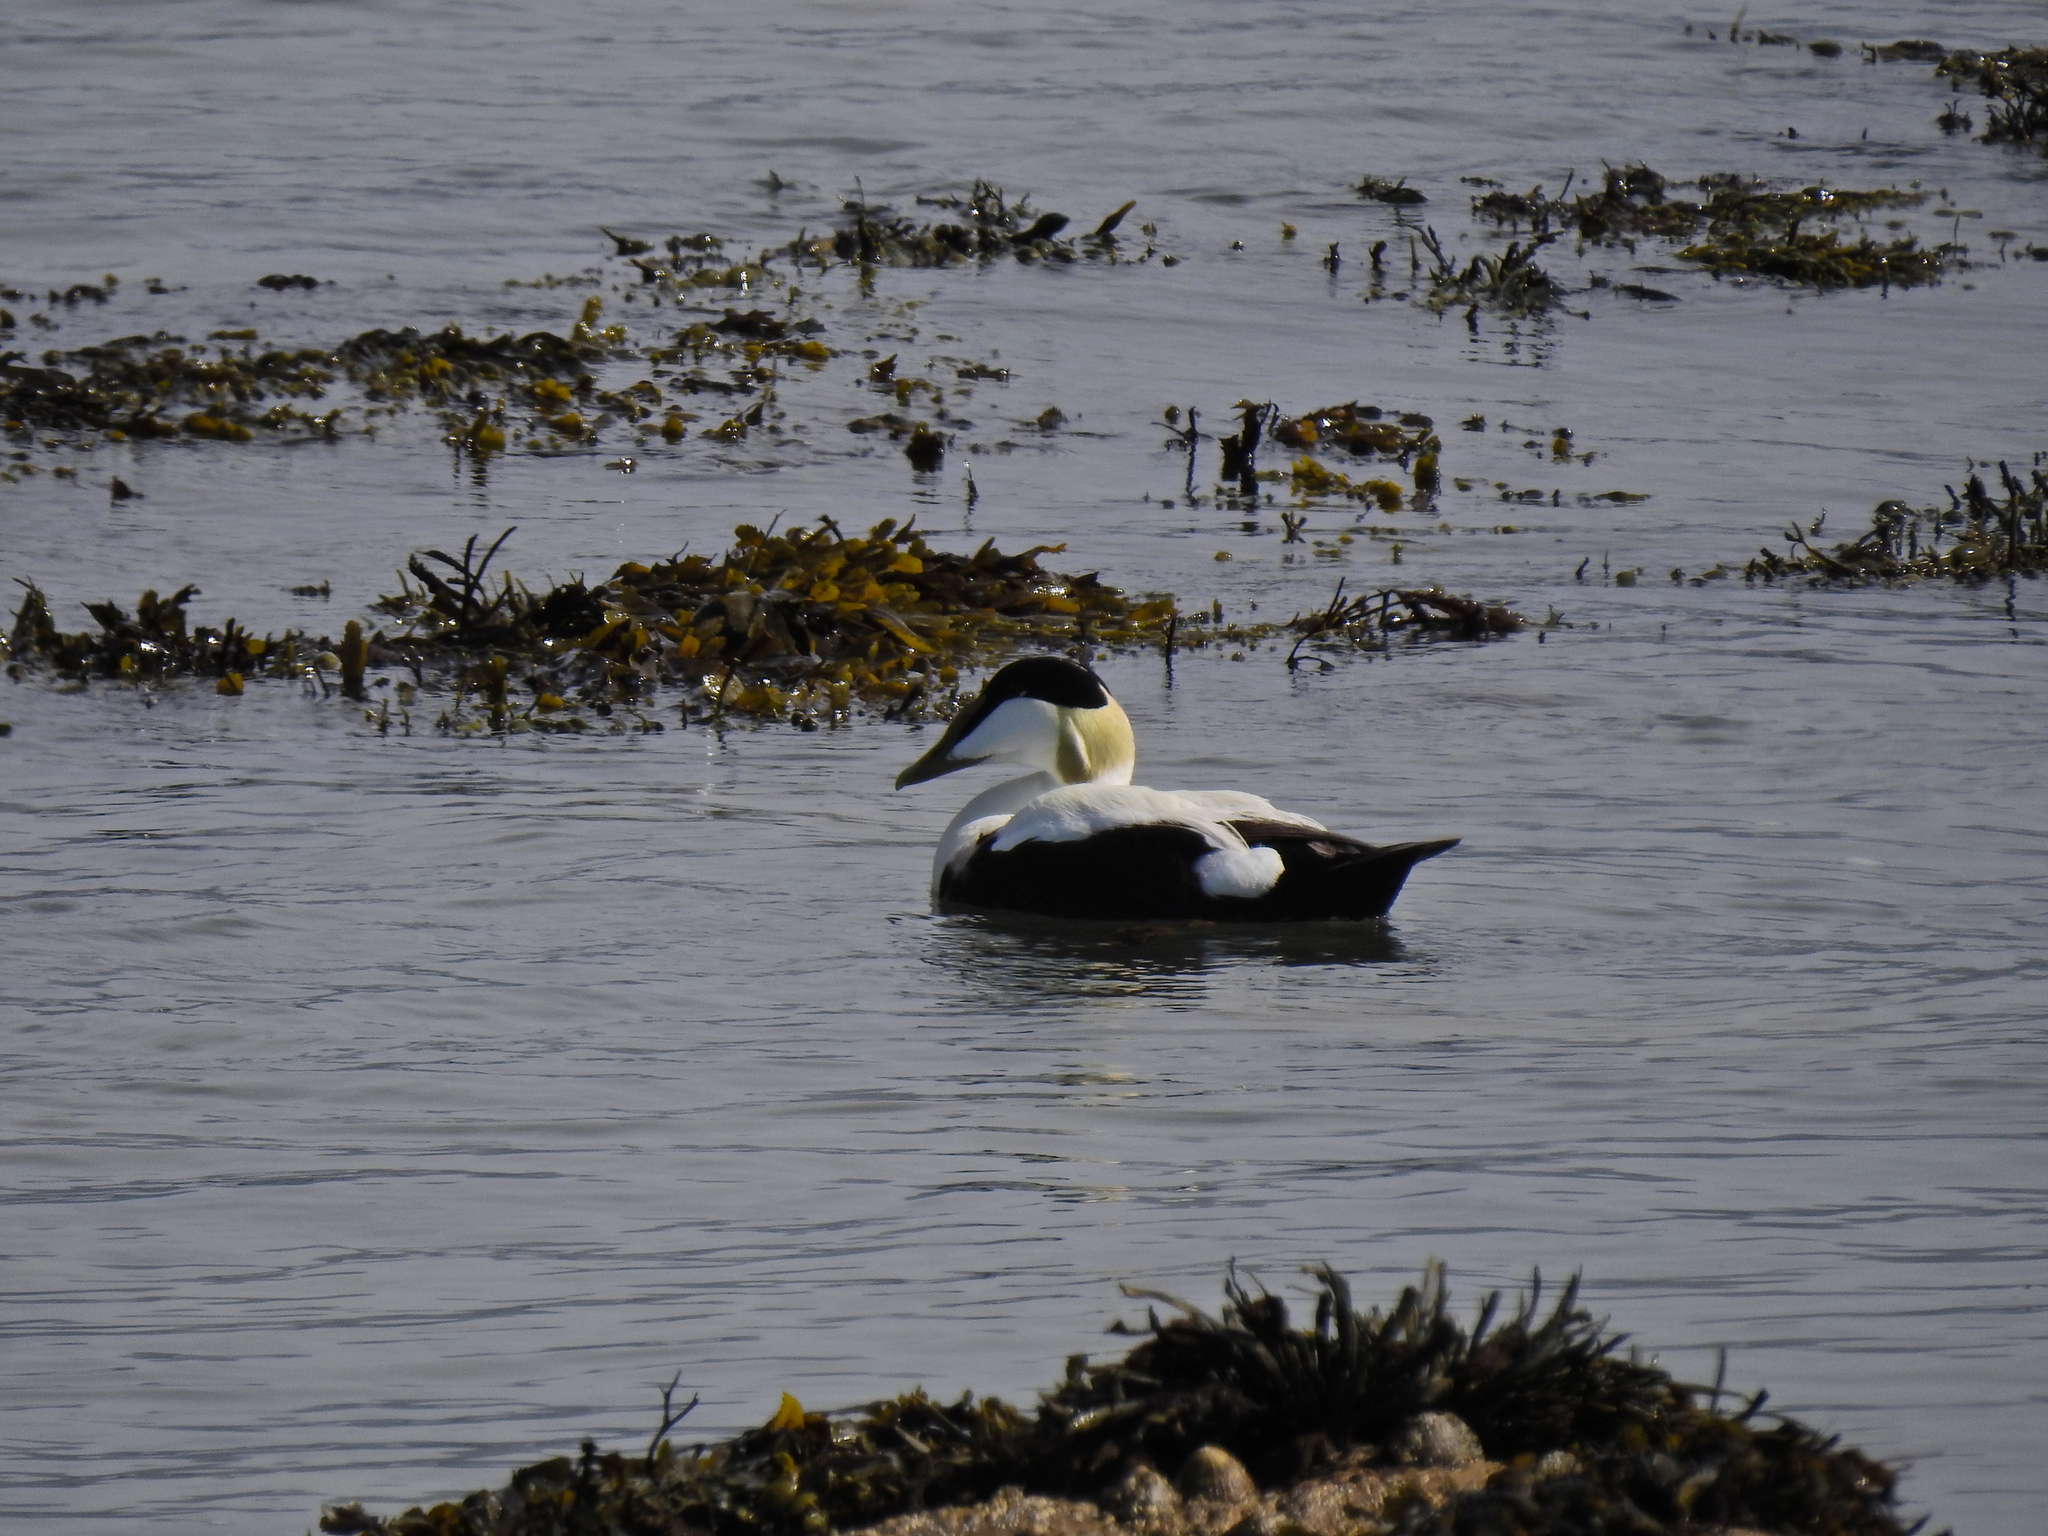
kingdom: Animalia
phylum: Chordata
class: Aves
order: Anseriformes
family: Anatidae
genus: Somateria
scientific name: Somateria mollissima
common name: Common eider
